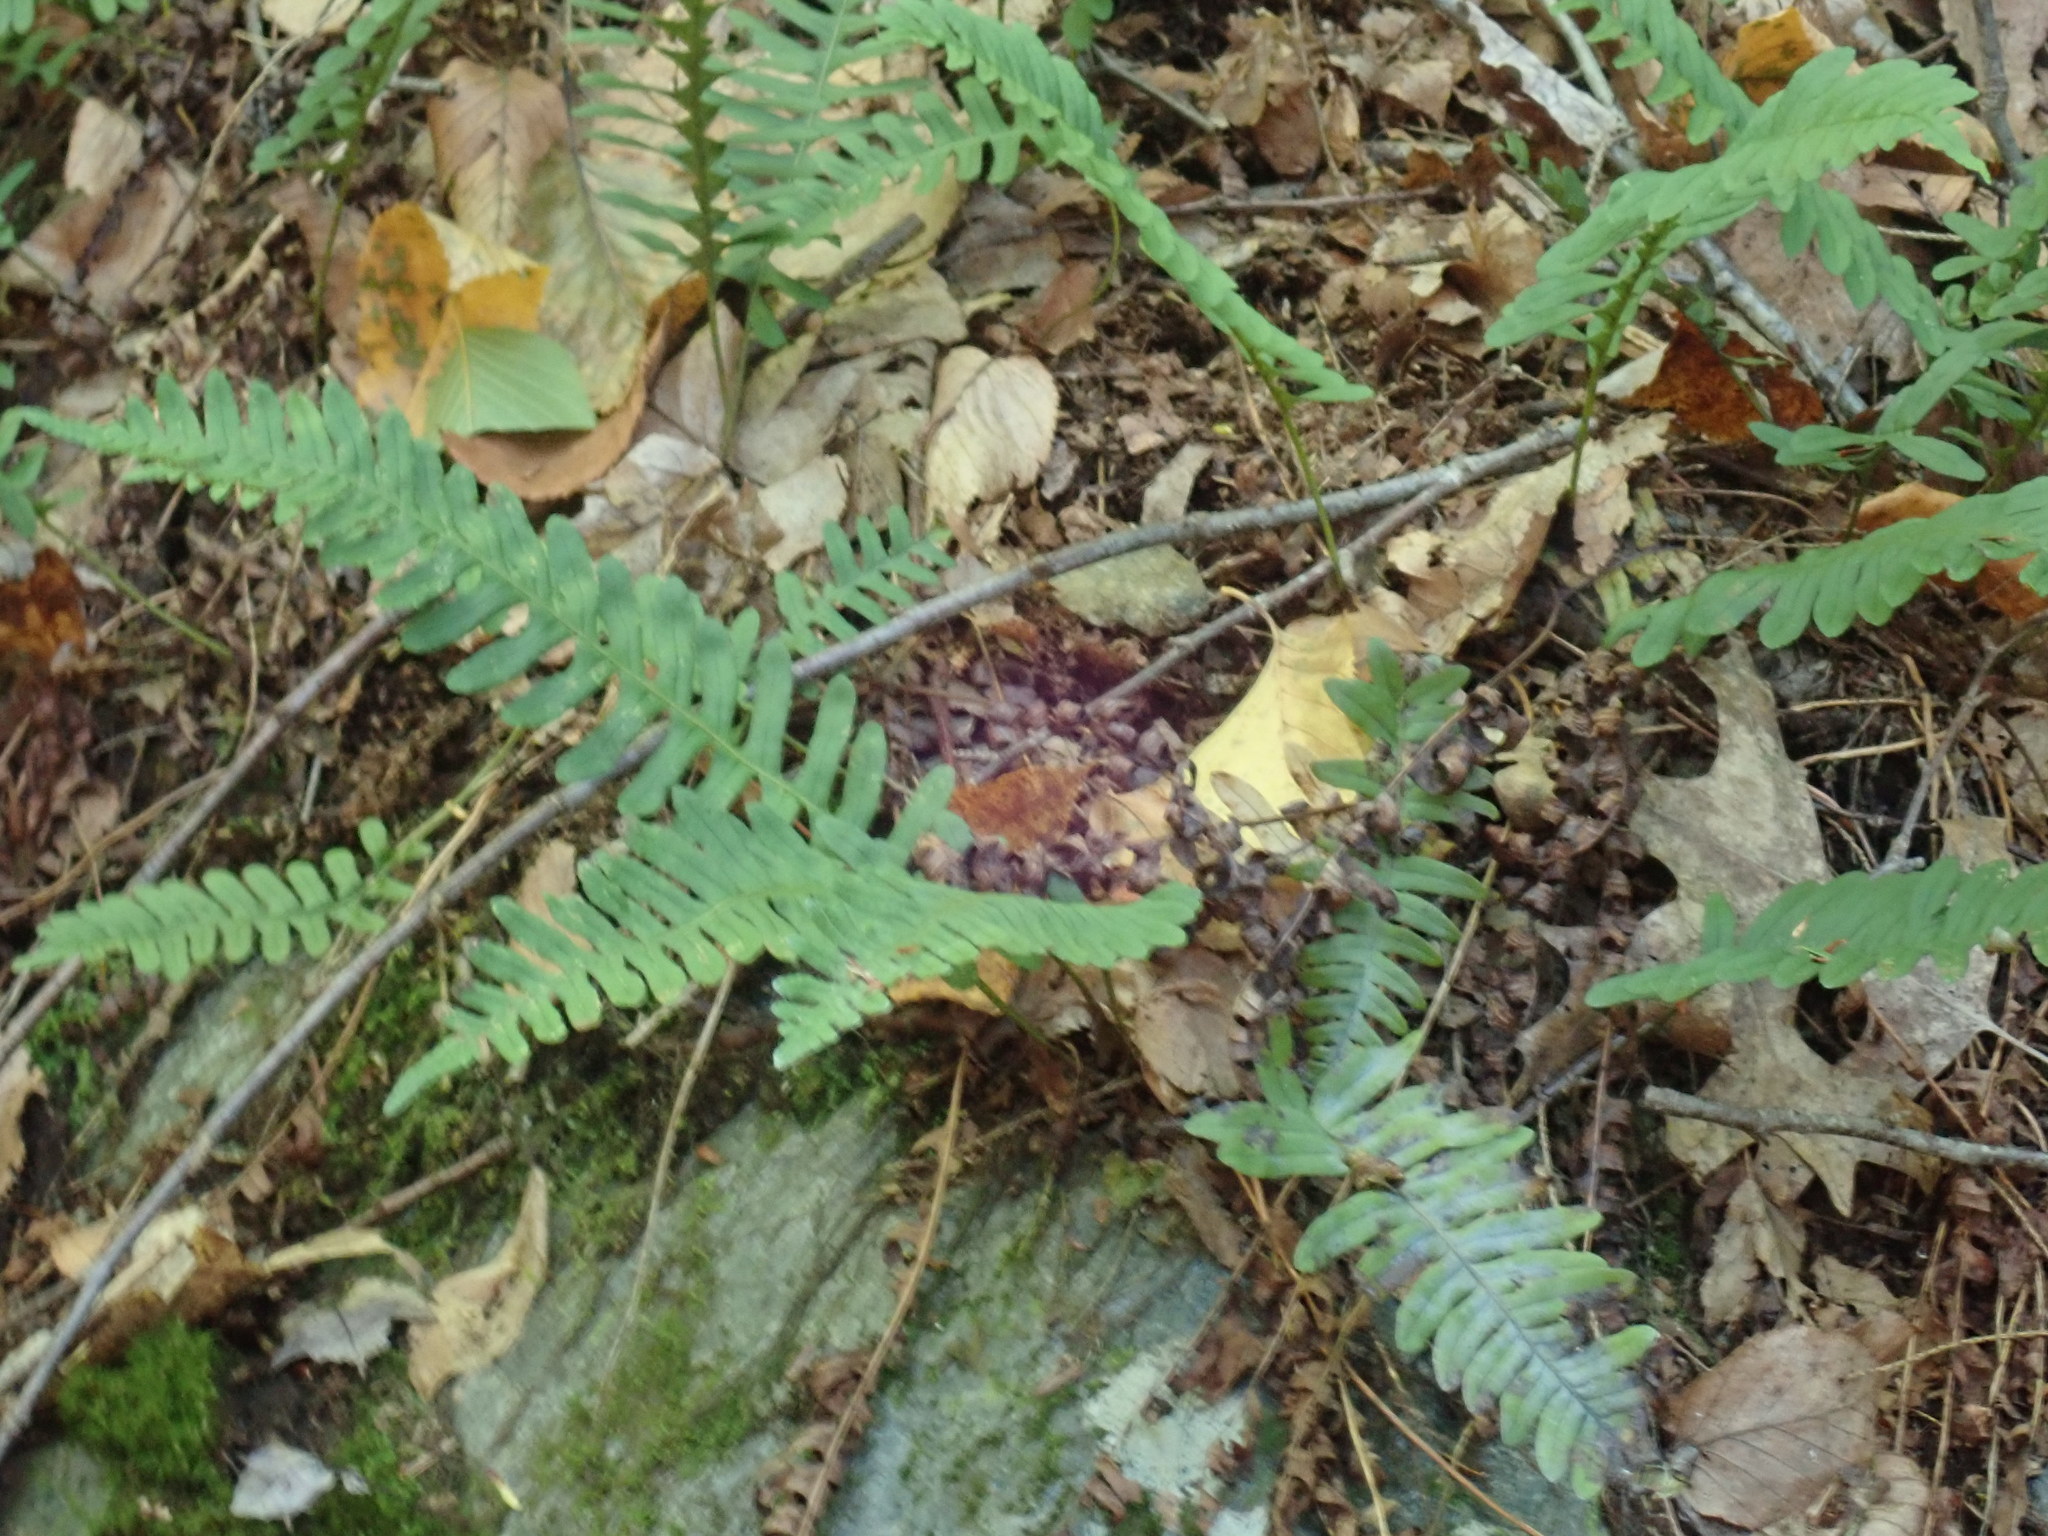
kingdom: Plantae
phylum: Tracheophyta
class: Polypodiopsida
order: Polypodiales
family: Polypodiaceae
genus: Polypodium
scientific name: Polypodium
